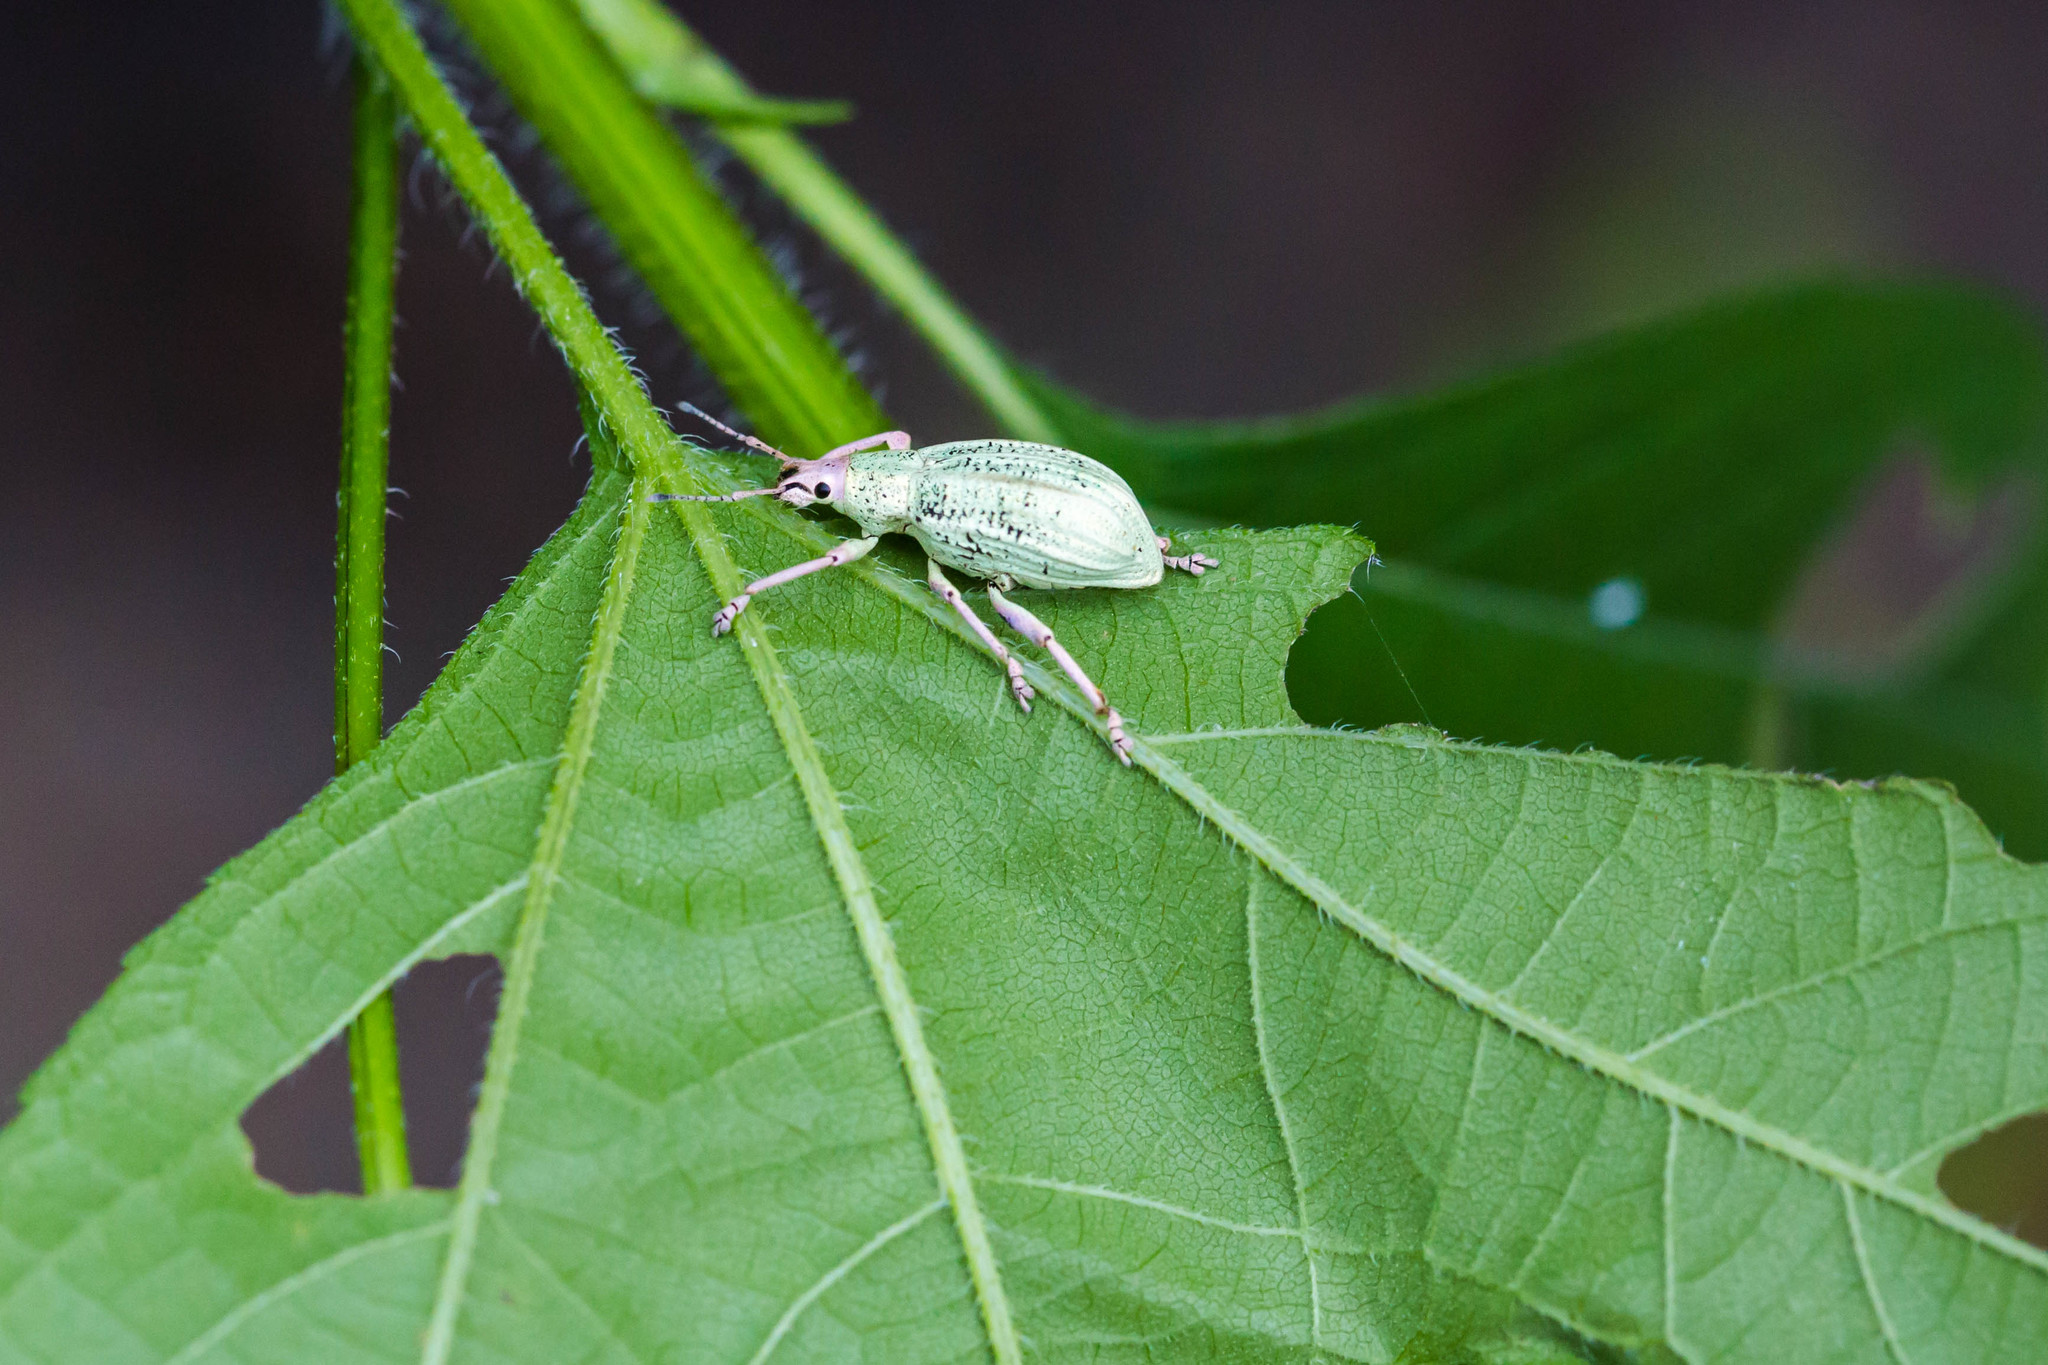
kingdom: Animalia
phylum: Arthropoda
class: Insecta
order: Coleoptera
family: Curculionidae
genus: Compsus
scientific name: Compsus auricephalus
